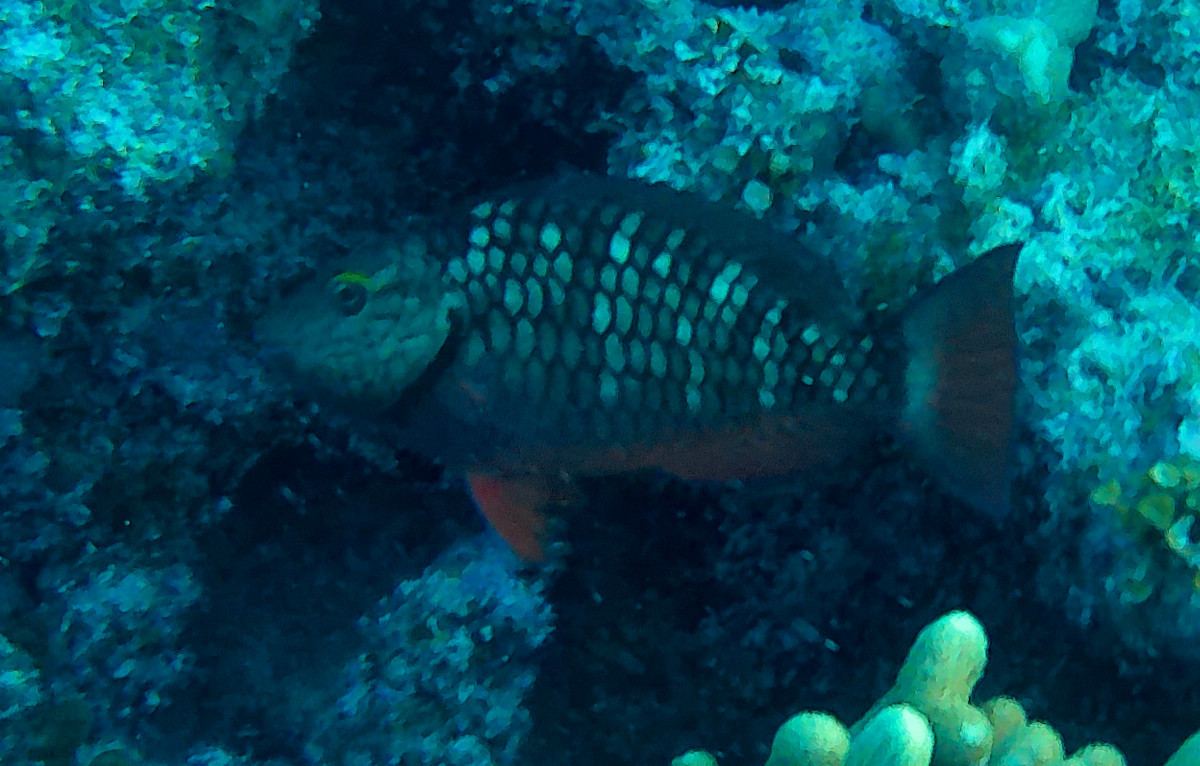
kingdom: Animalia
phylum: Chordata
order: Perciformes
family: Scaridae
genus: Sparisoma
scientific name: Sparisoma viride
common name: Stoplight parrotfish
